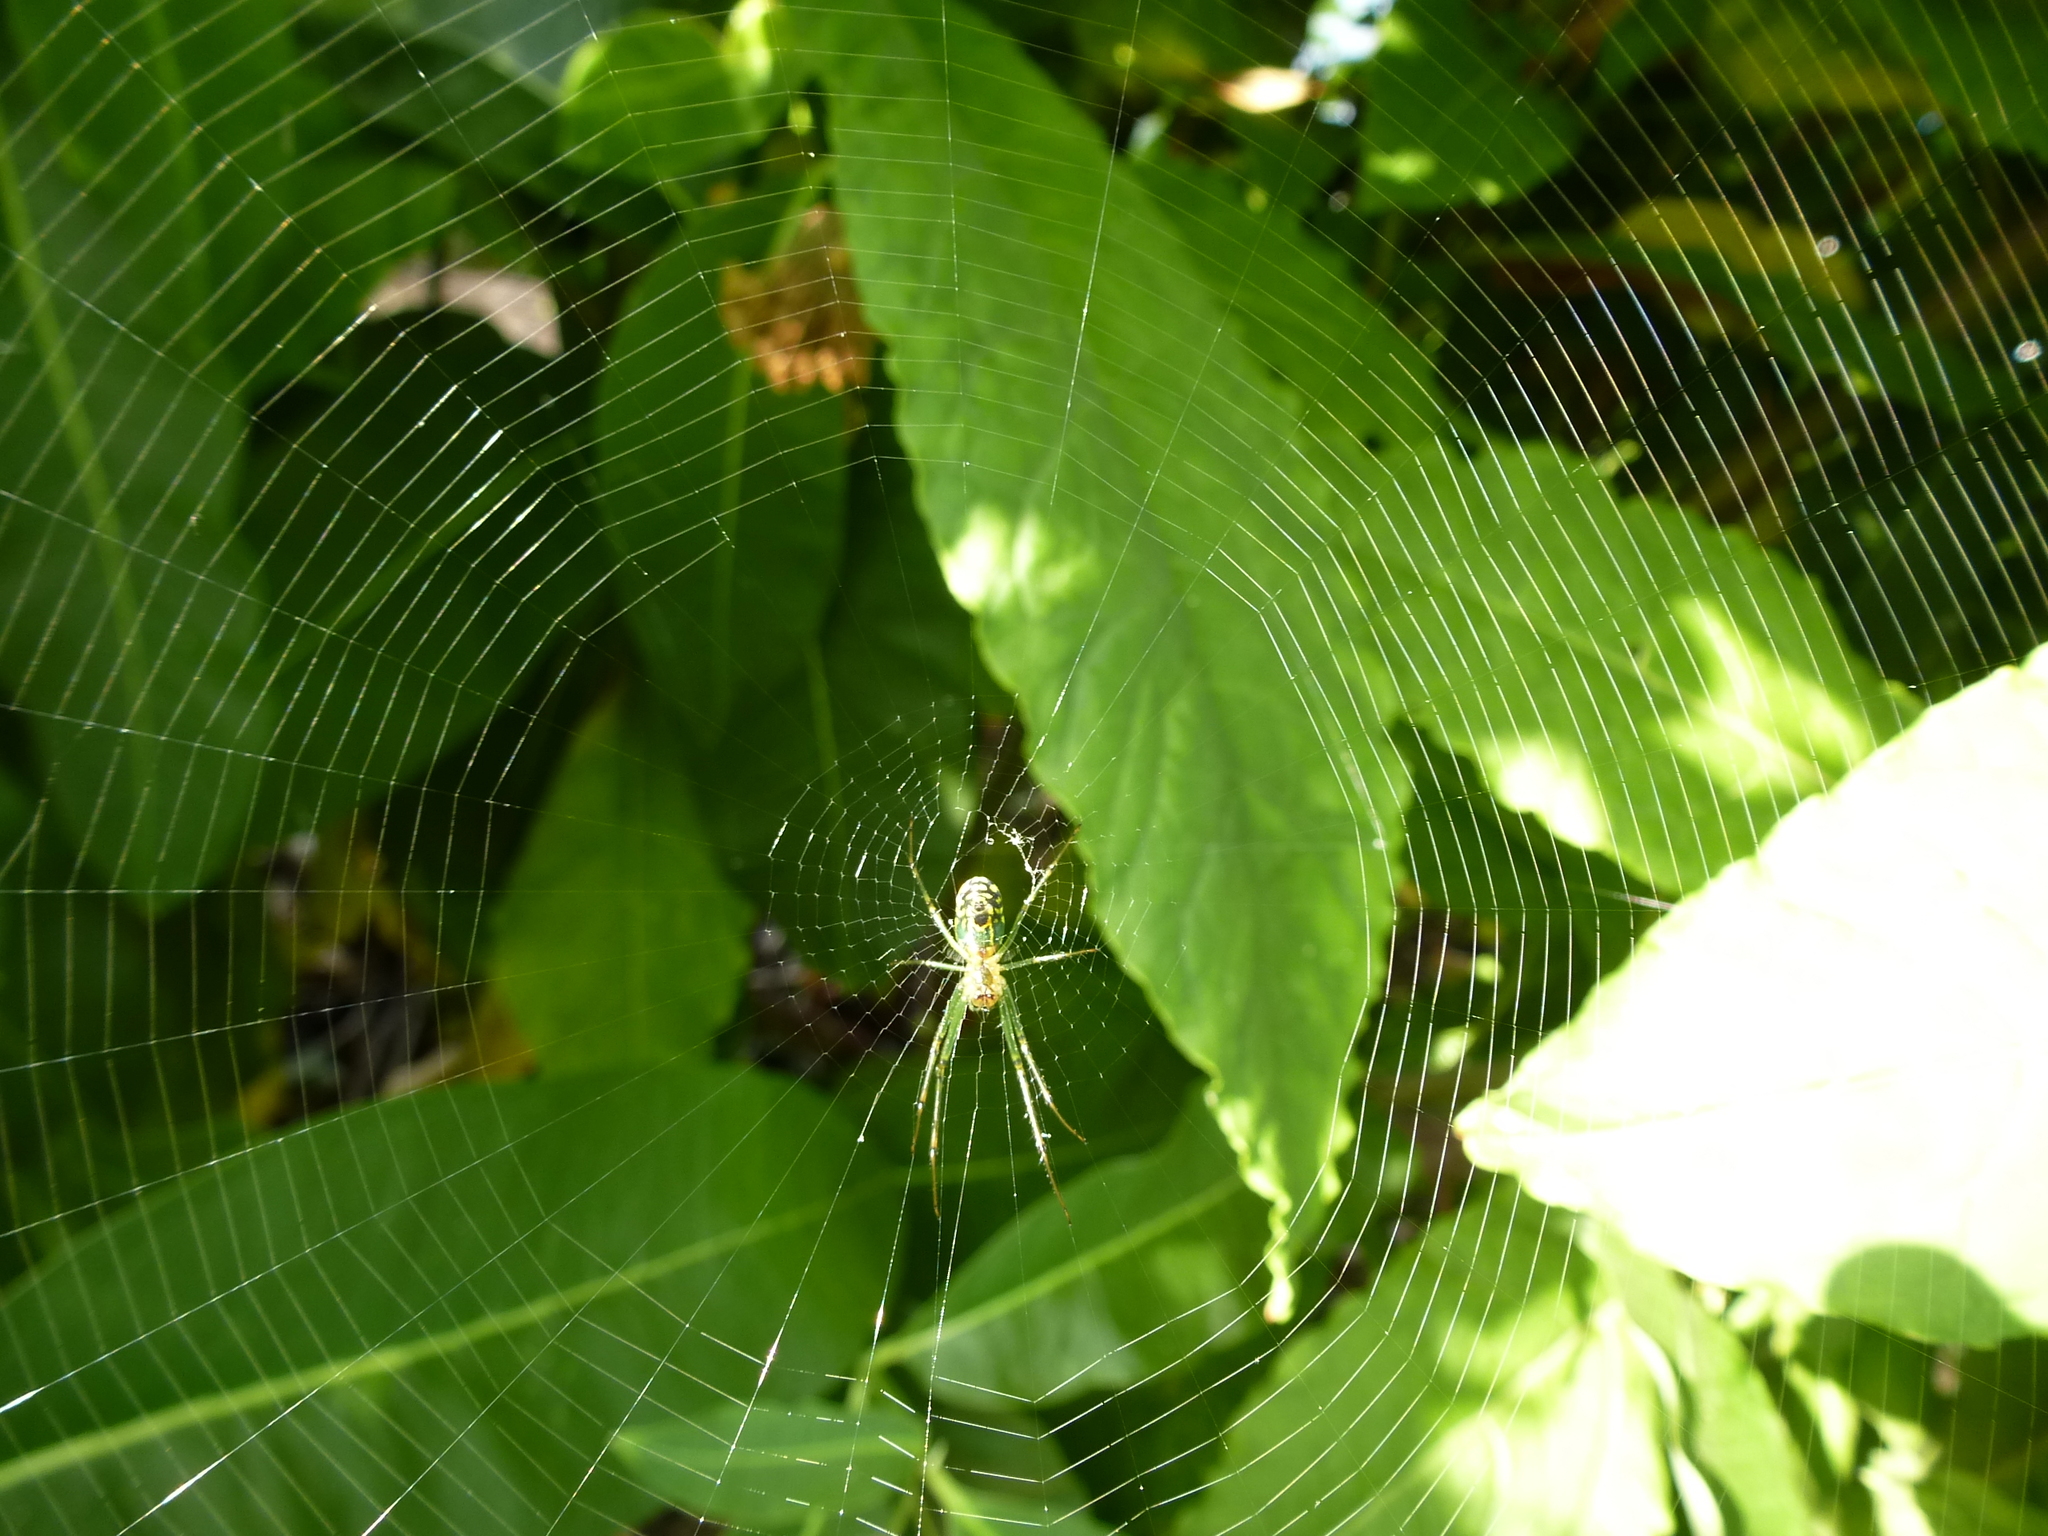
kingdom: Animalia
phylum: Arthropoda
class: Arachnida
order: Araneae
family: Tetragnathidae
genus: Leucauge
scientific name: Leucauge venusta
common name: Longjawed orb weavers
